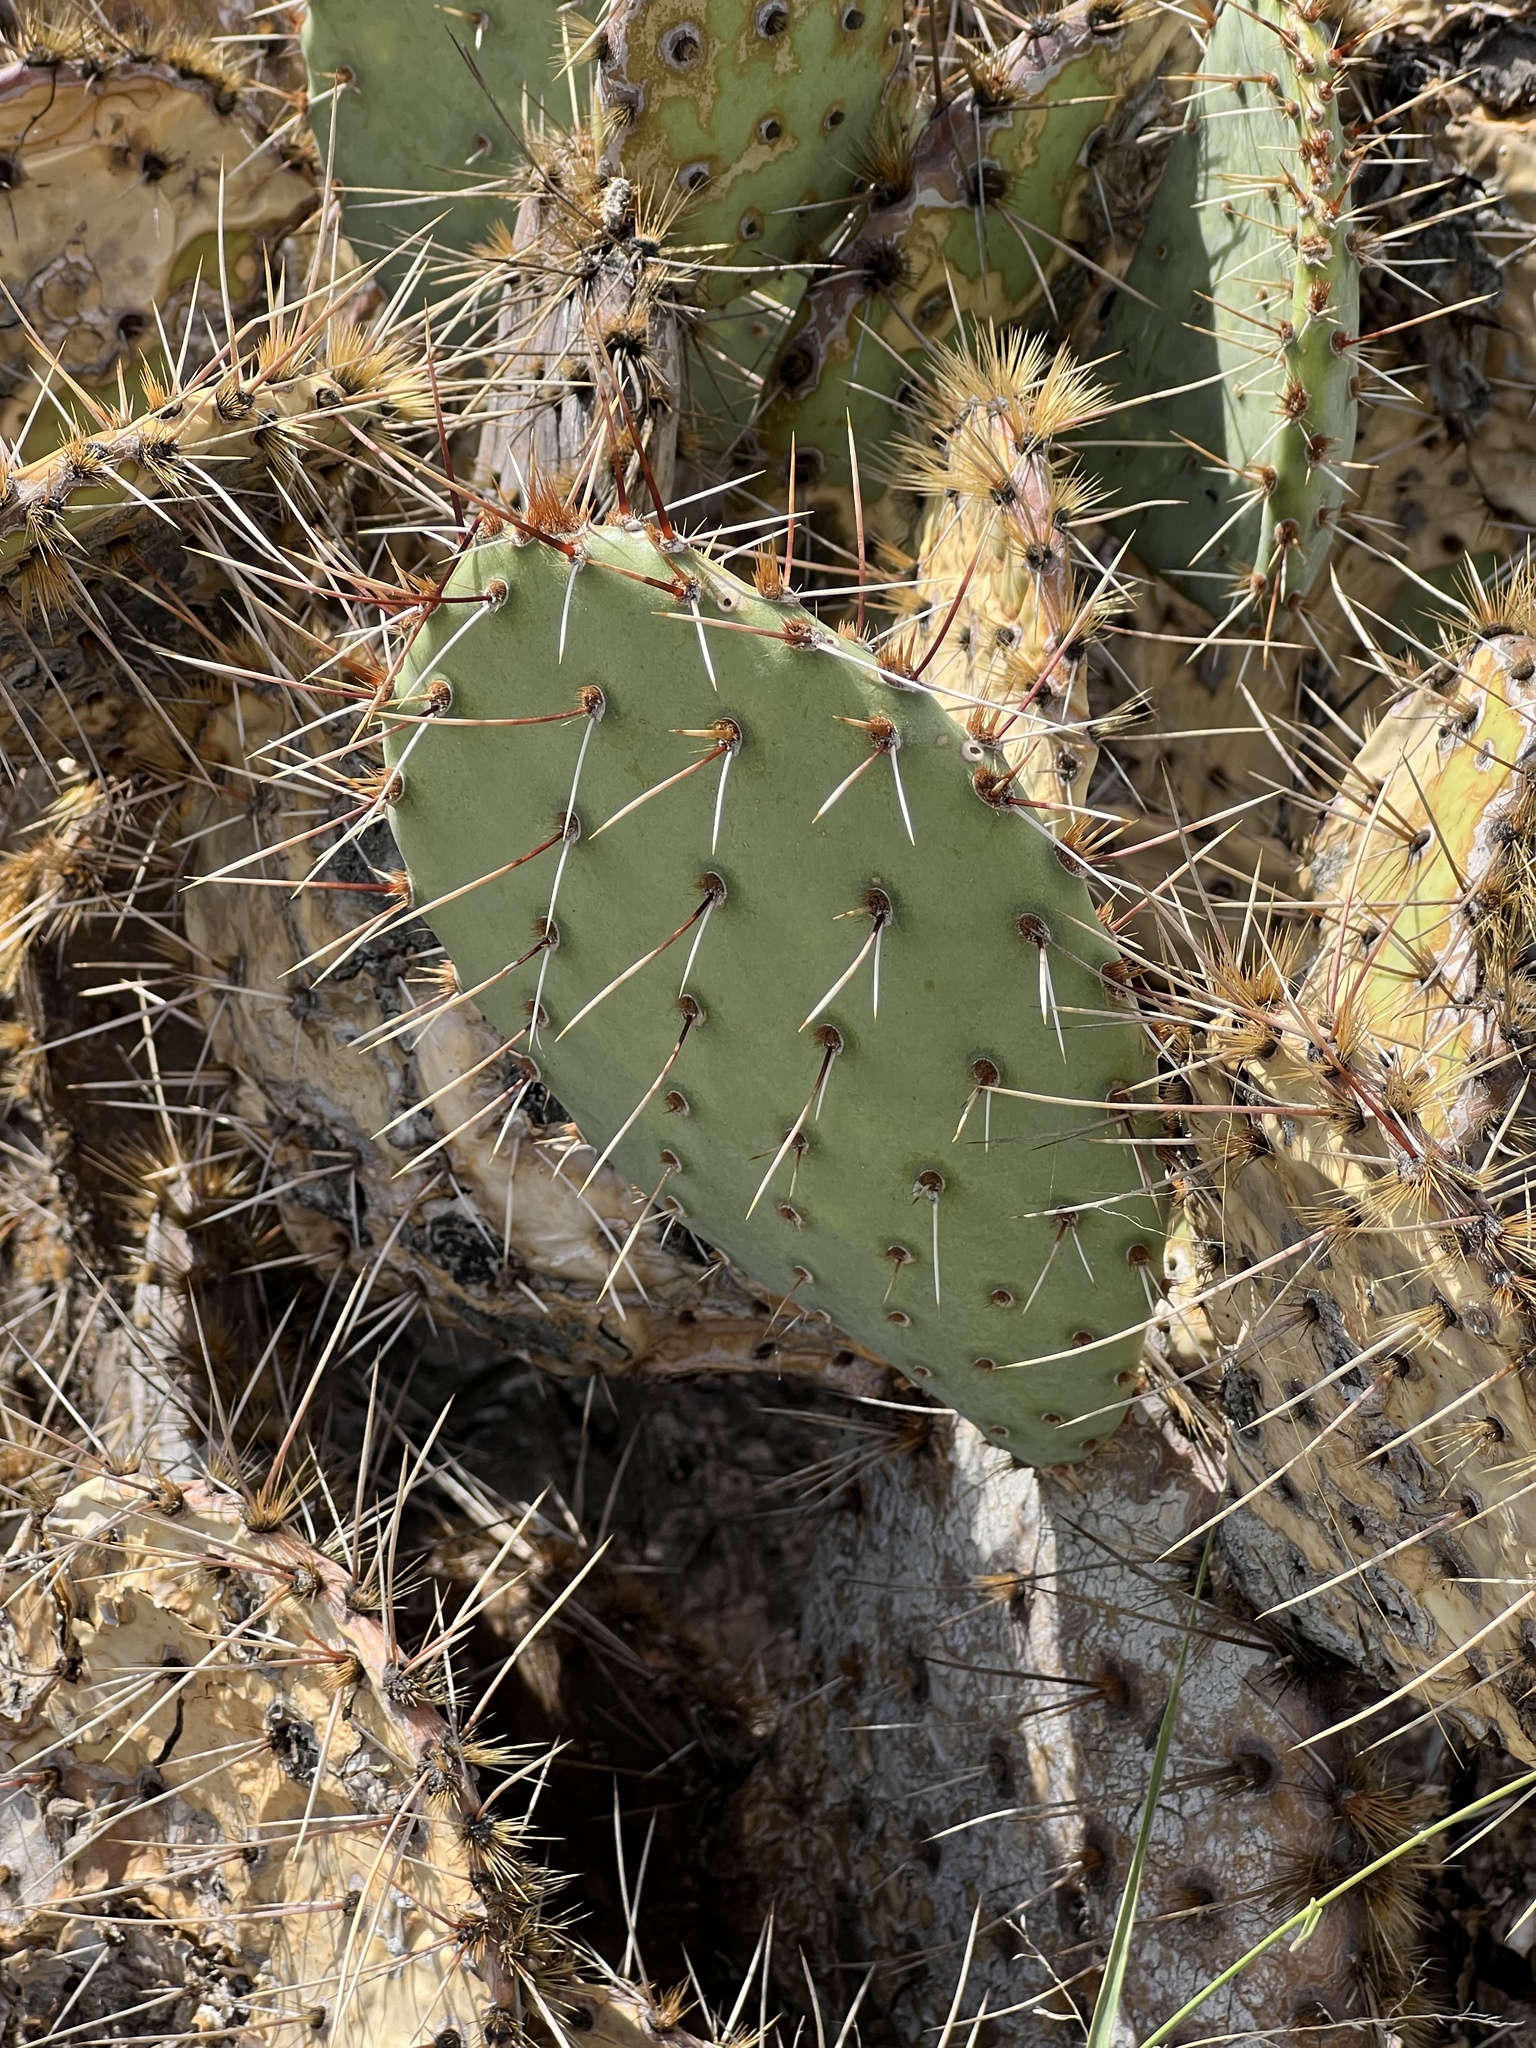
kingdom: Plantae
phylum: Tracheophyta
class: Magnoliopsida
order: Caryophyllales
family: Cactaceae
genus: Opuntia
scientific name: Opuntia phaeacantha
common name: New mexico prickly-pear
